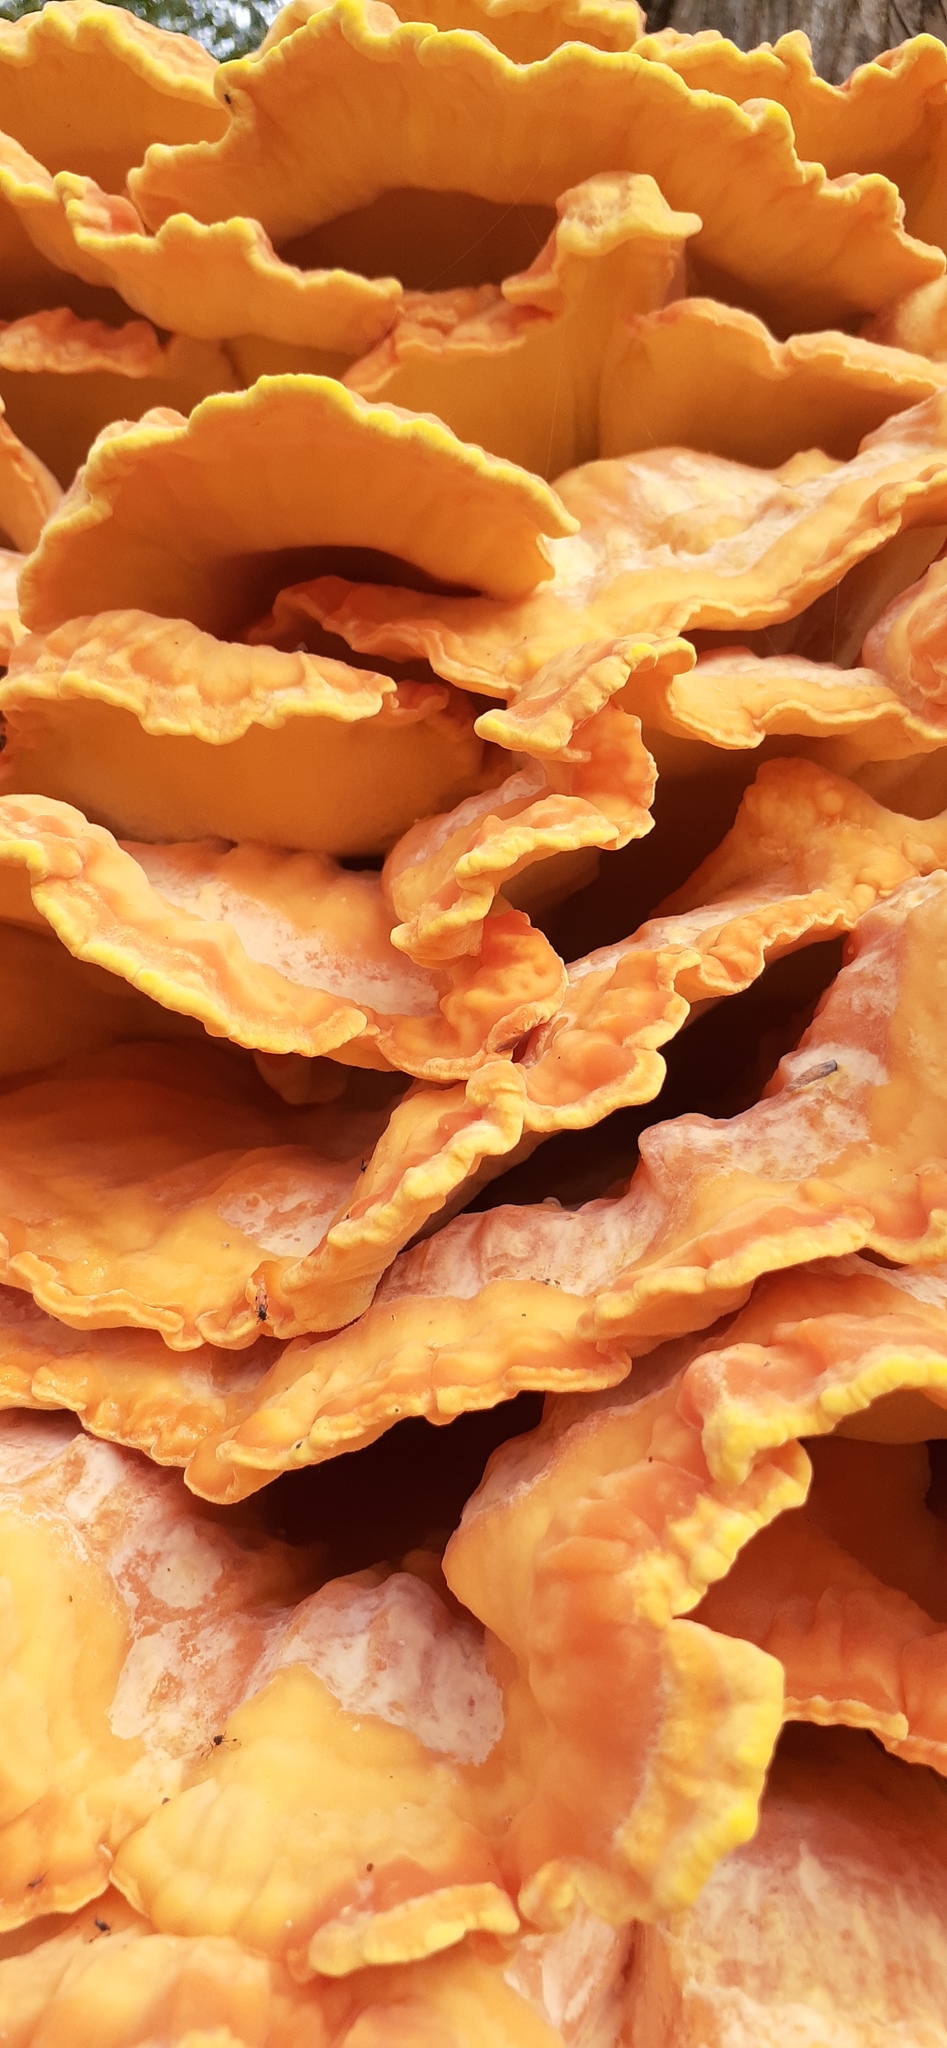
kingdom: Fungi
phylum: Basidiomycota
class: Agaricomycetes
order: Polyporales
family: Laetiporaceae
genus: Laetiporus
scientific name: Laetiporus sulphureus
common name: Chicken of the woods
